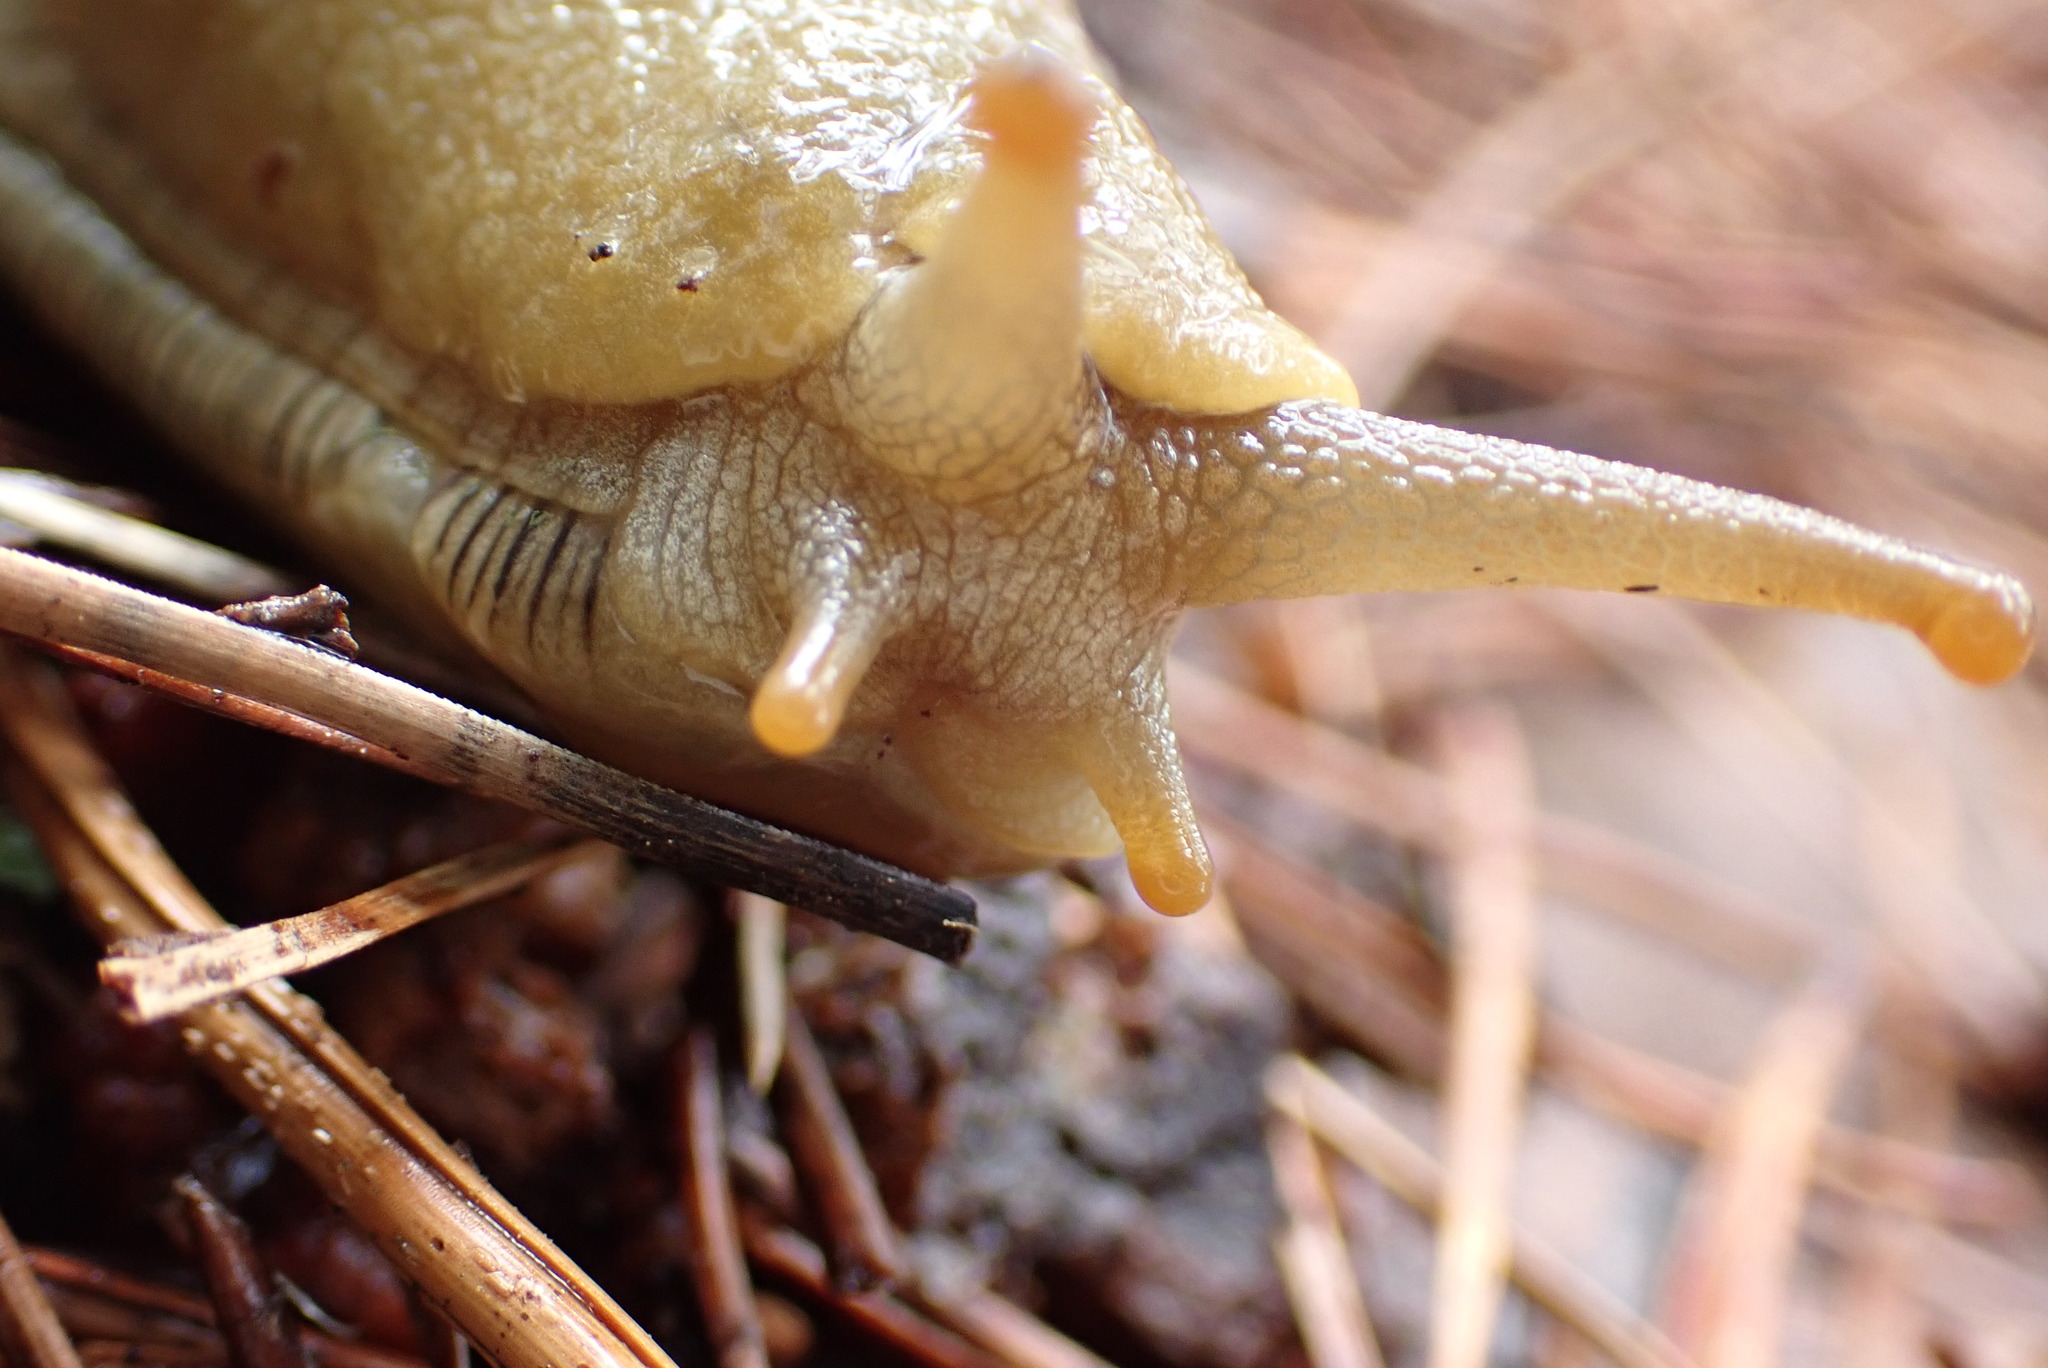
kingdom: Animalia
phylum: Mollusca
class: Gastropoda
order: Stylommatophora
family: Ariolimacidae
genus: Ariolimax
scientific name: Ariolimax buttoni
